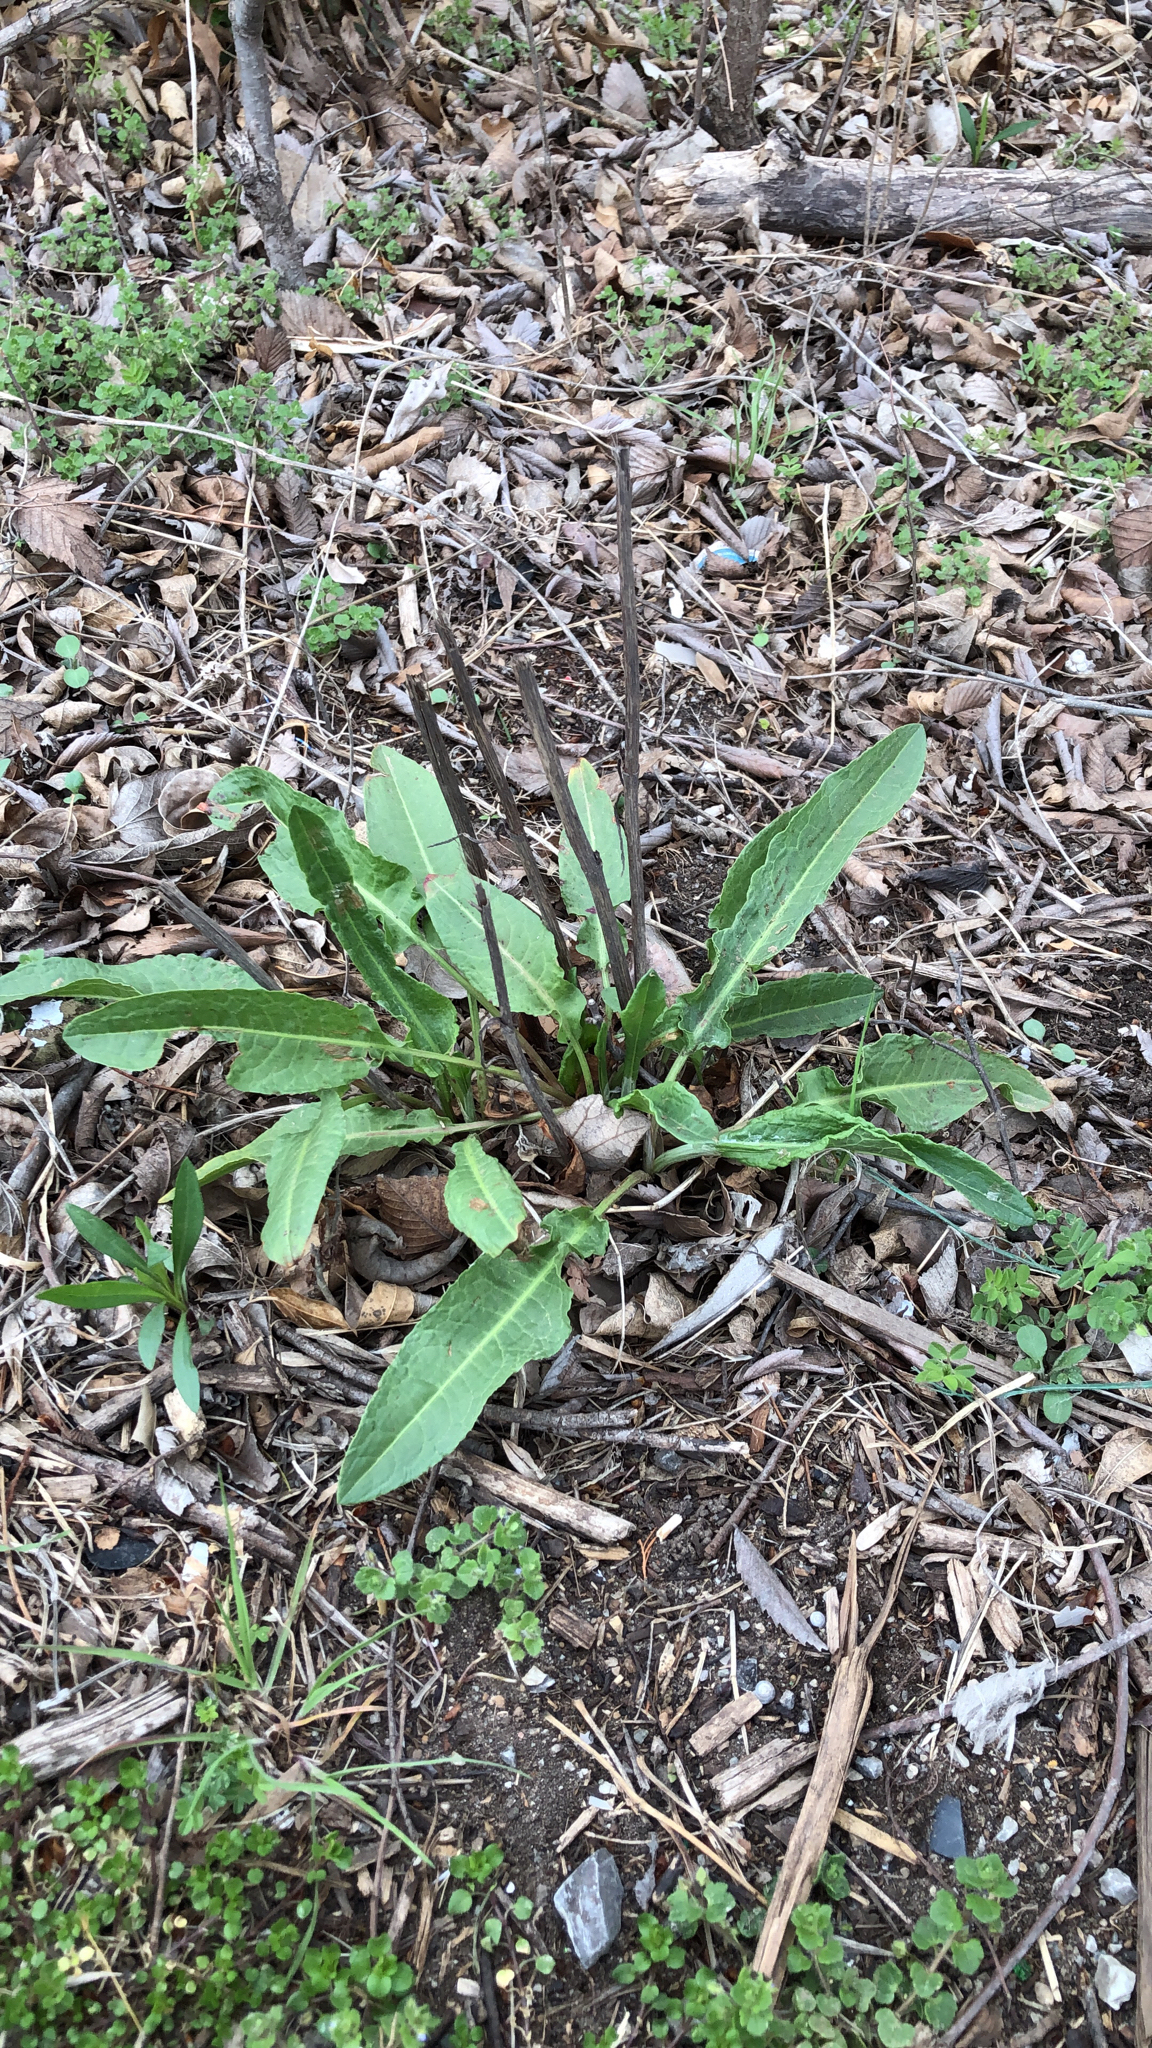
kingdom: Plantae
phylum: Tracheophyta
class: Magnoliopsida
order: Caryophyllales
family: Polygonaceae
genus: Rumex
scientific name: Rumex crispus
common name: Curled dock
